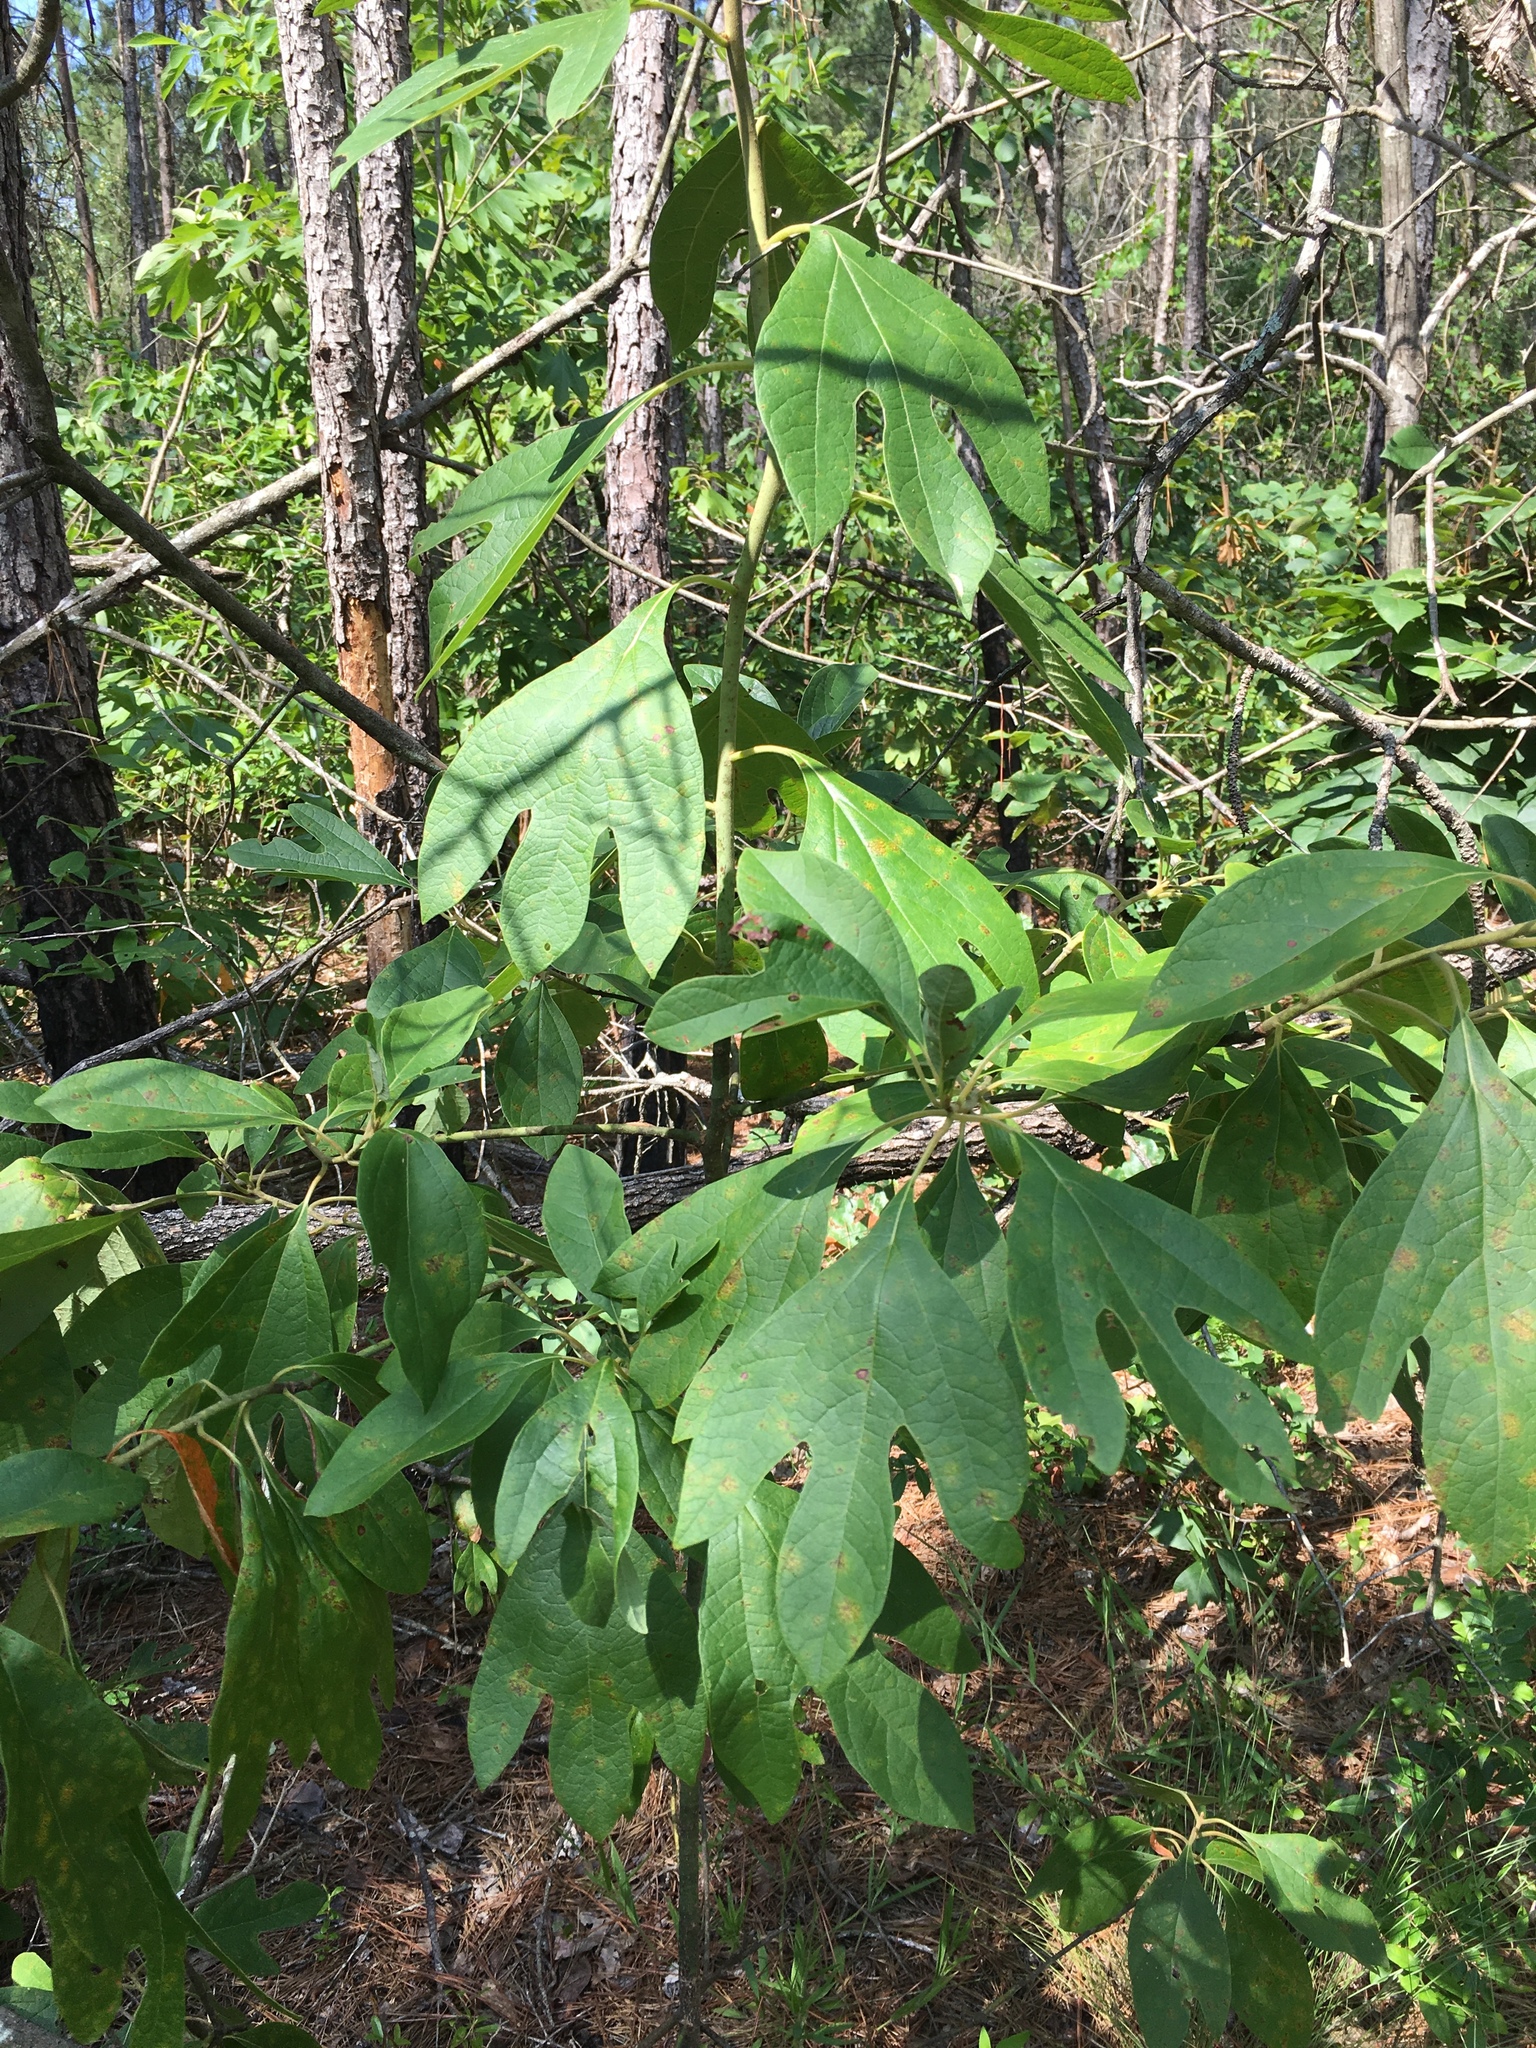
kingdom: Plantae
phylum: Tracheophyta
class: Magnoliopsida
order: Laurales
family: Lauraceae
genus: Sassafras
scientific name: Sassafras albidum
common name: Sassafras
